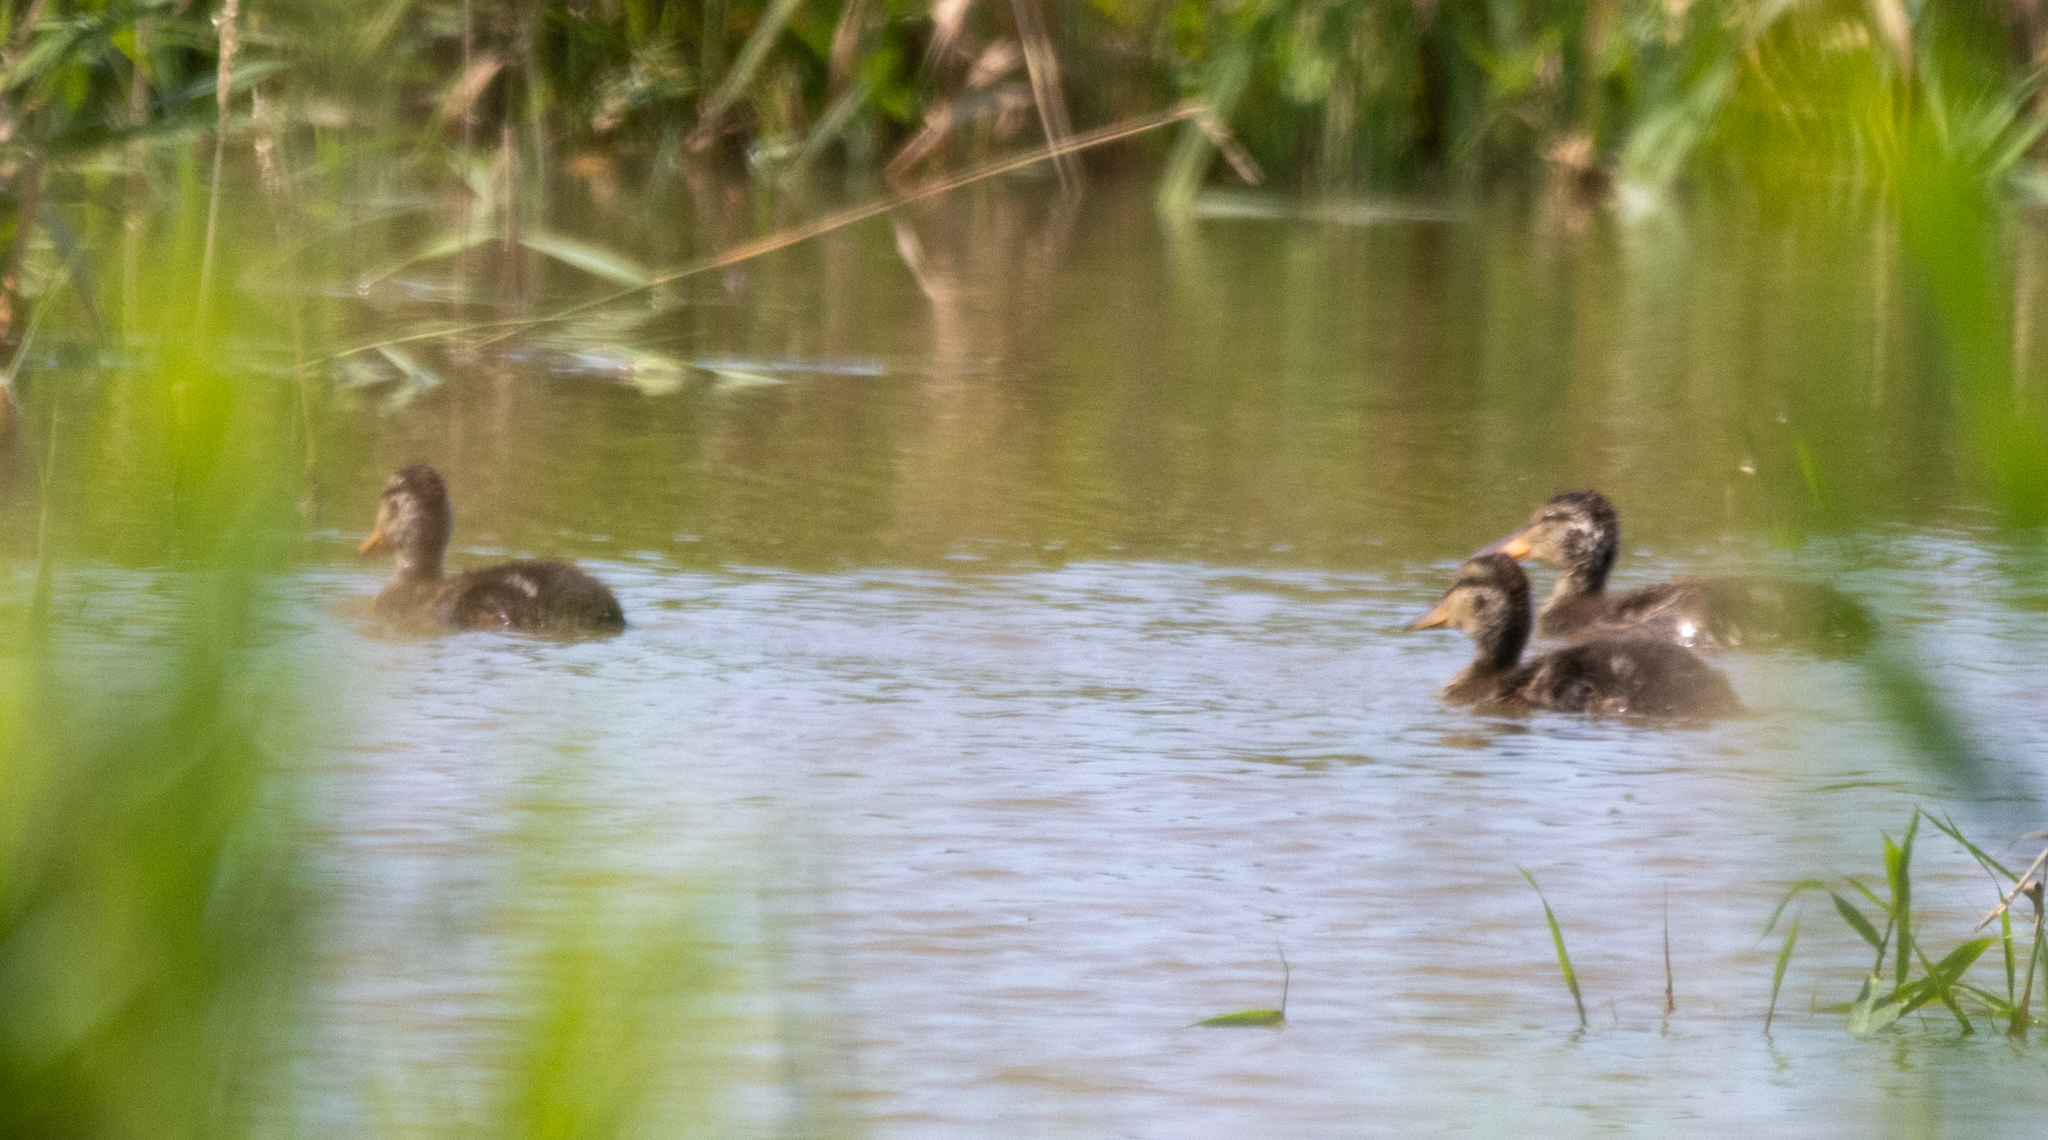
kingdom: Animalia
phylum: Chordata
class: Aves
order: Anseriformes
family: Anatidae
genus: Anas
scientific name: Anas platyrhynchos
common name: Mallard
